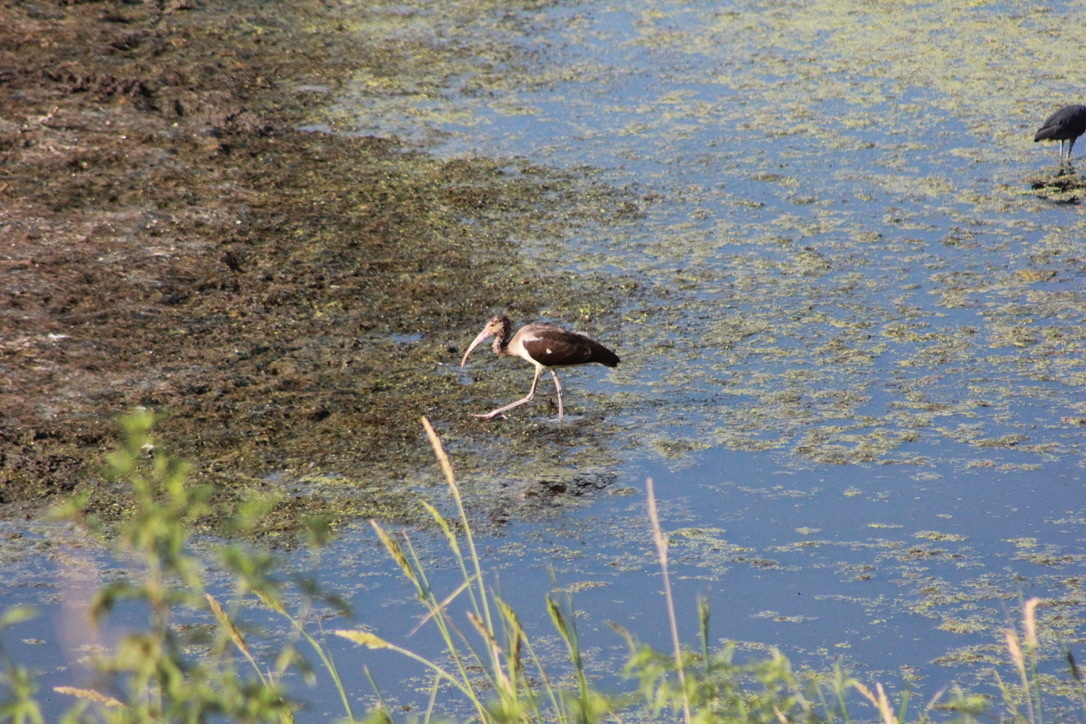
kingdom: Animalia
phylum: Chordata
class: Aves
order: Pelecaniformes
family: Threskiornithidae
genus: Eudocimus
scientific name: Eudocimus albus
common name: White ibis
